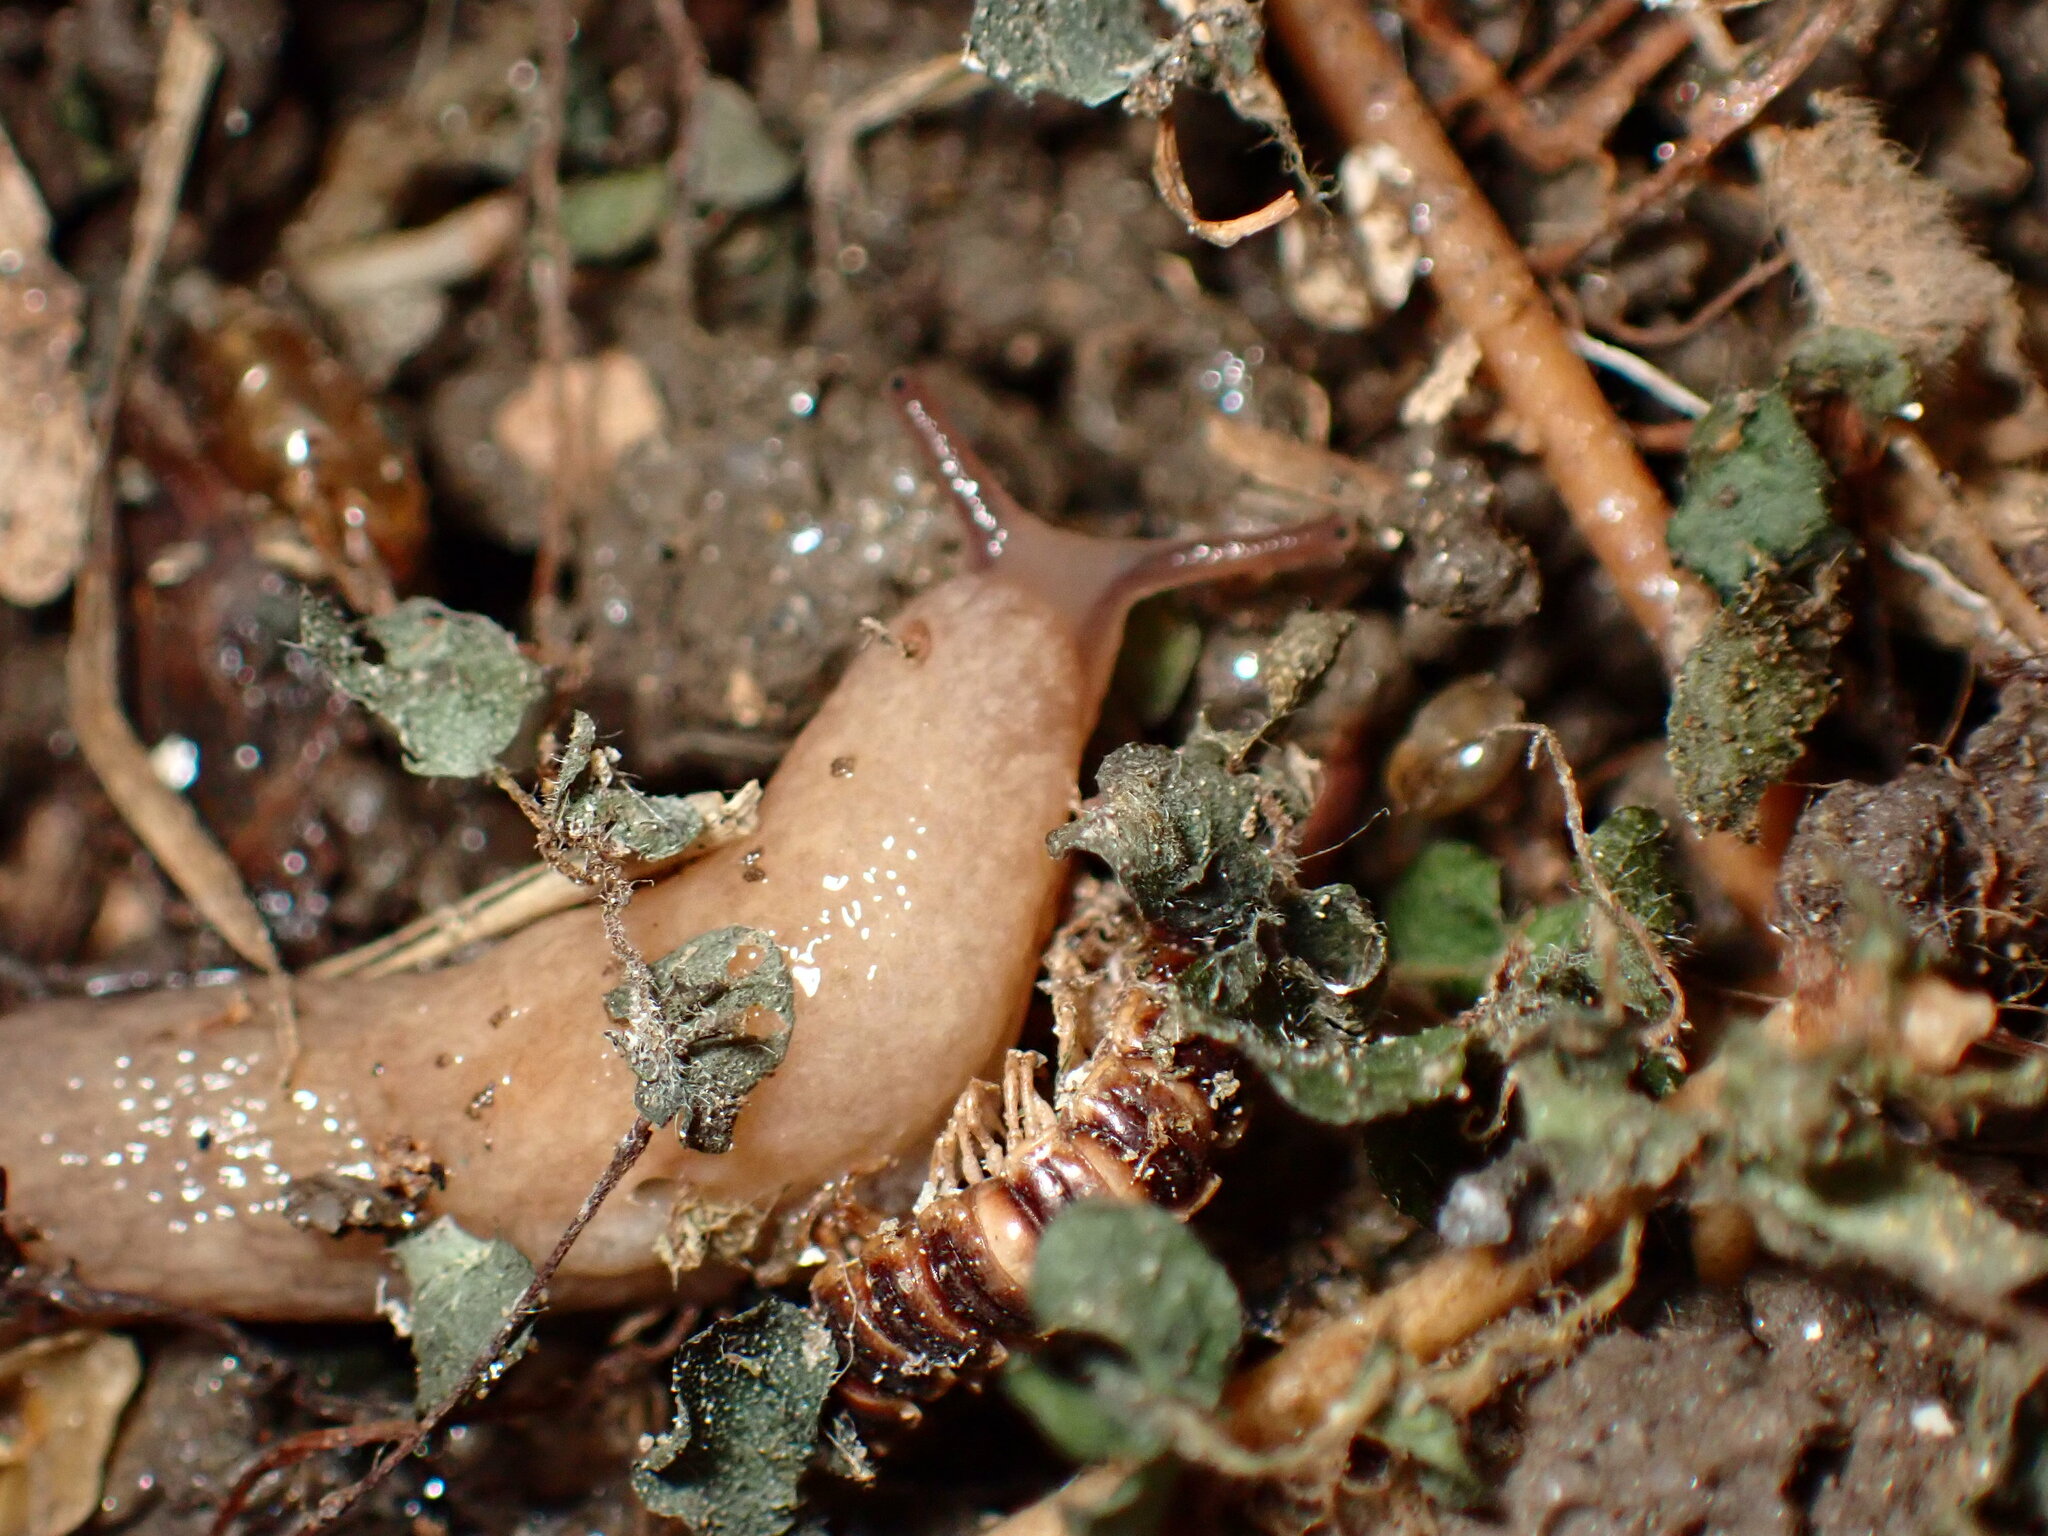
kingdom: Animalia
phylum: Mollusca
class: Gastropoda
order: Stylommatophora
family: Agriolimacidae
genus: Deroceras
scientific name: Deroceras reticulatum
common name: Gray field slug
